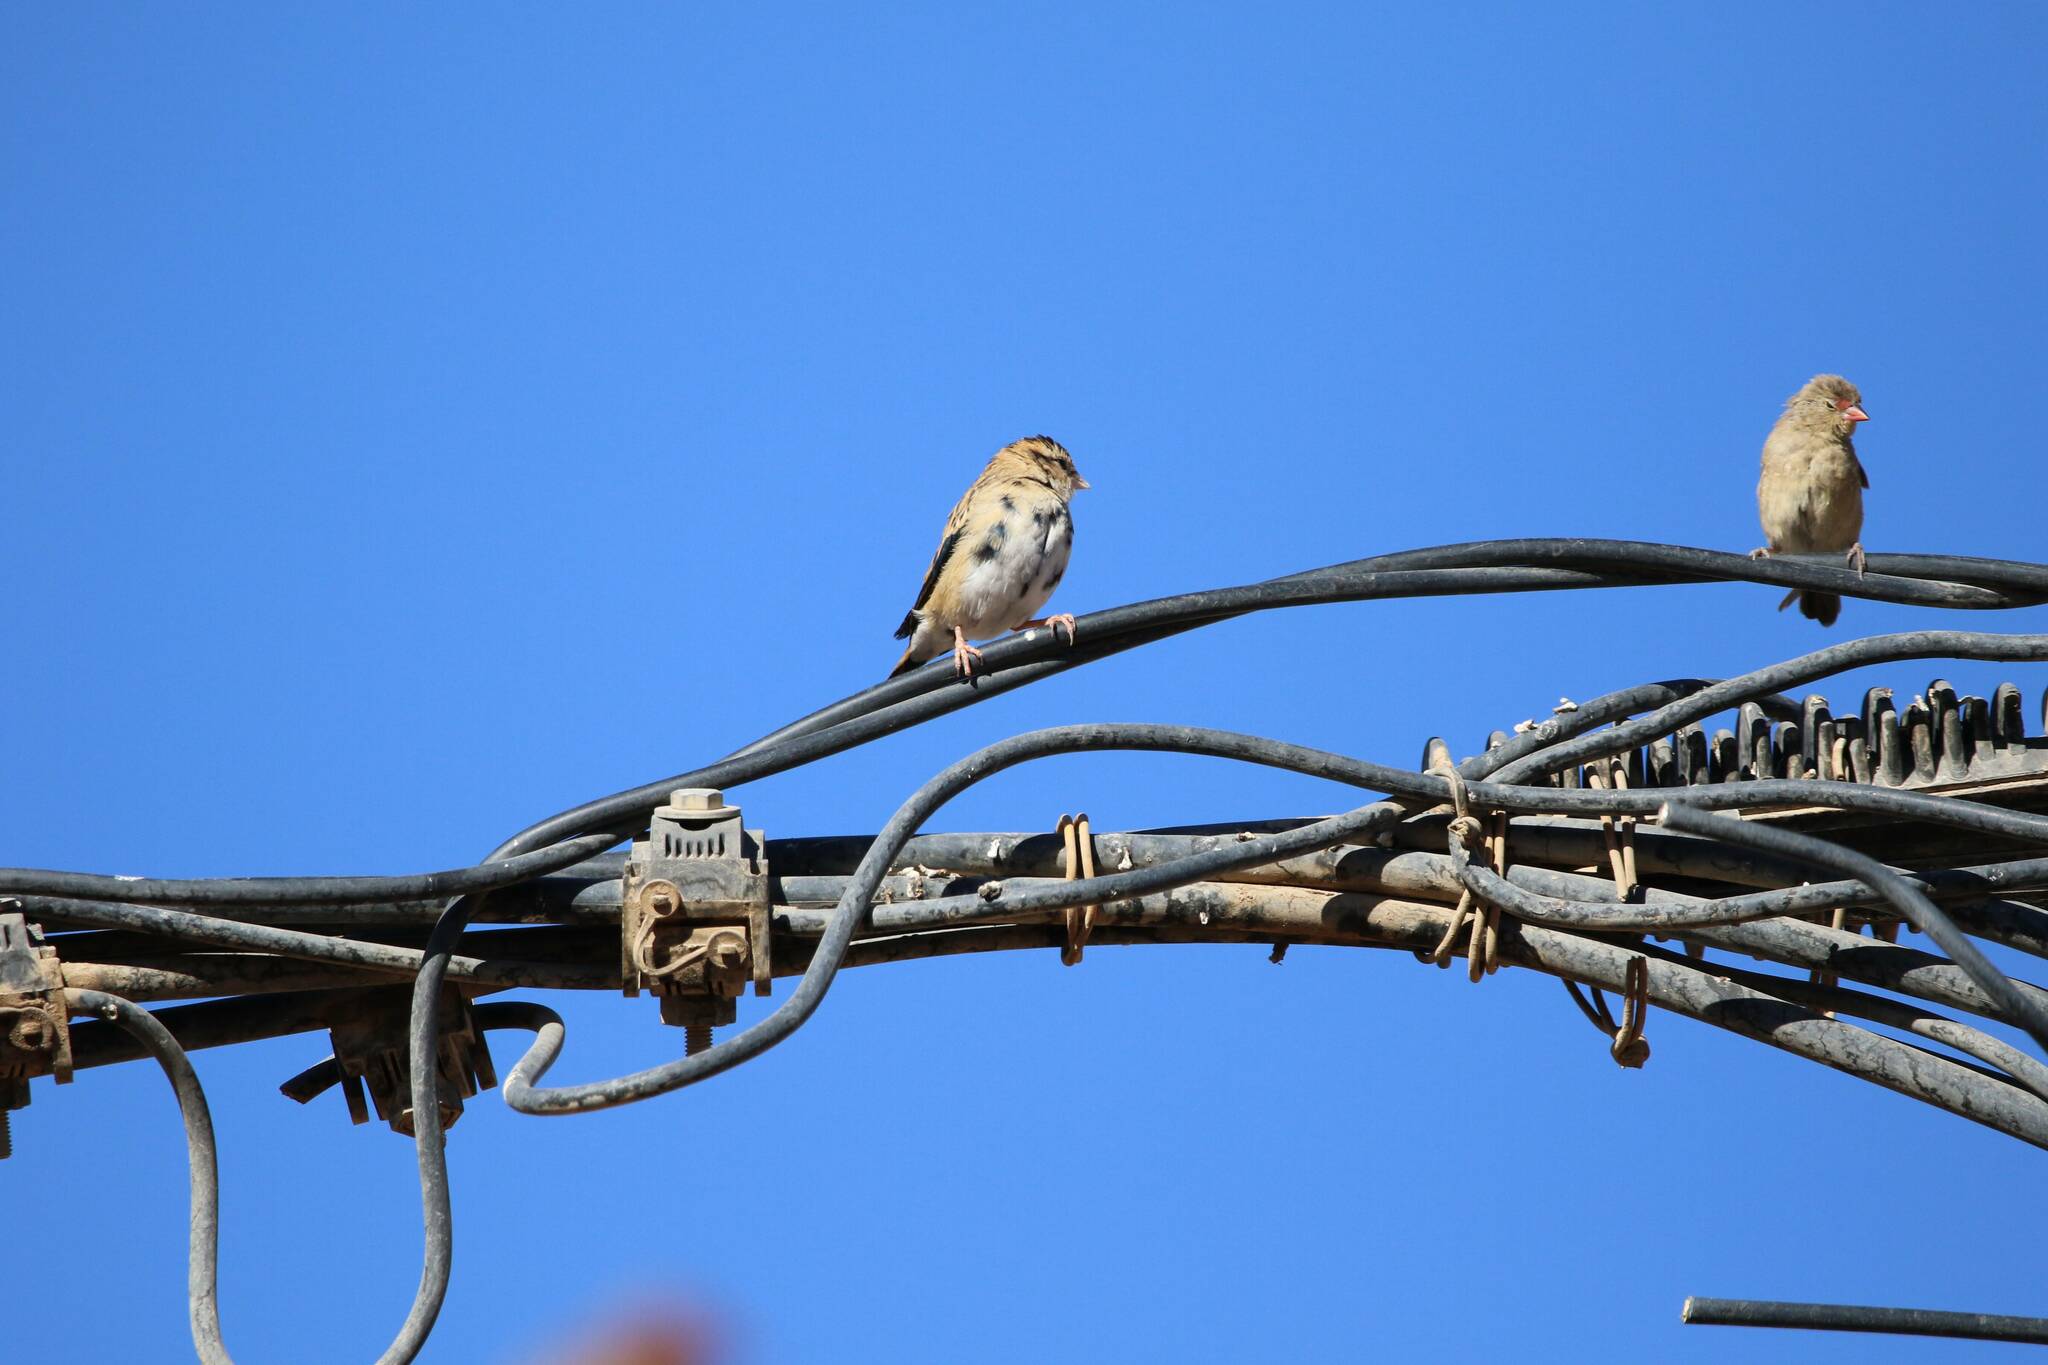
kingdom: Animalia
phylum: Chordata
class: Aves
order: Passeriformes
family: Viduidae
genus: Vidua
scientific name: Vidua chalybeata
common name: Village indigobird
